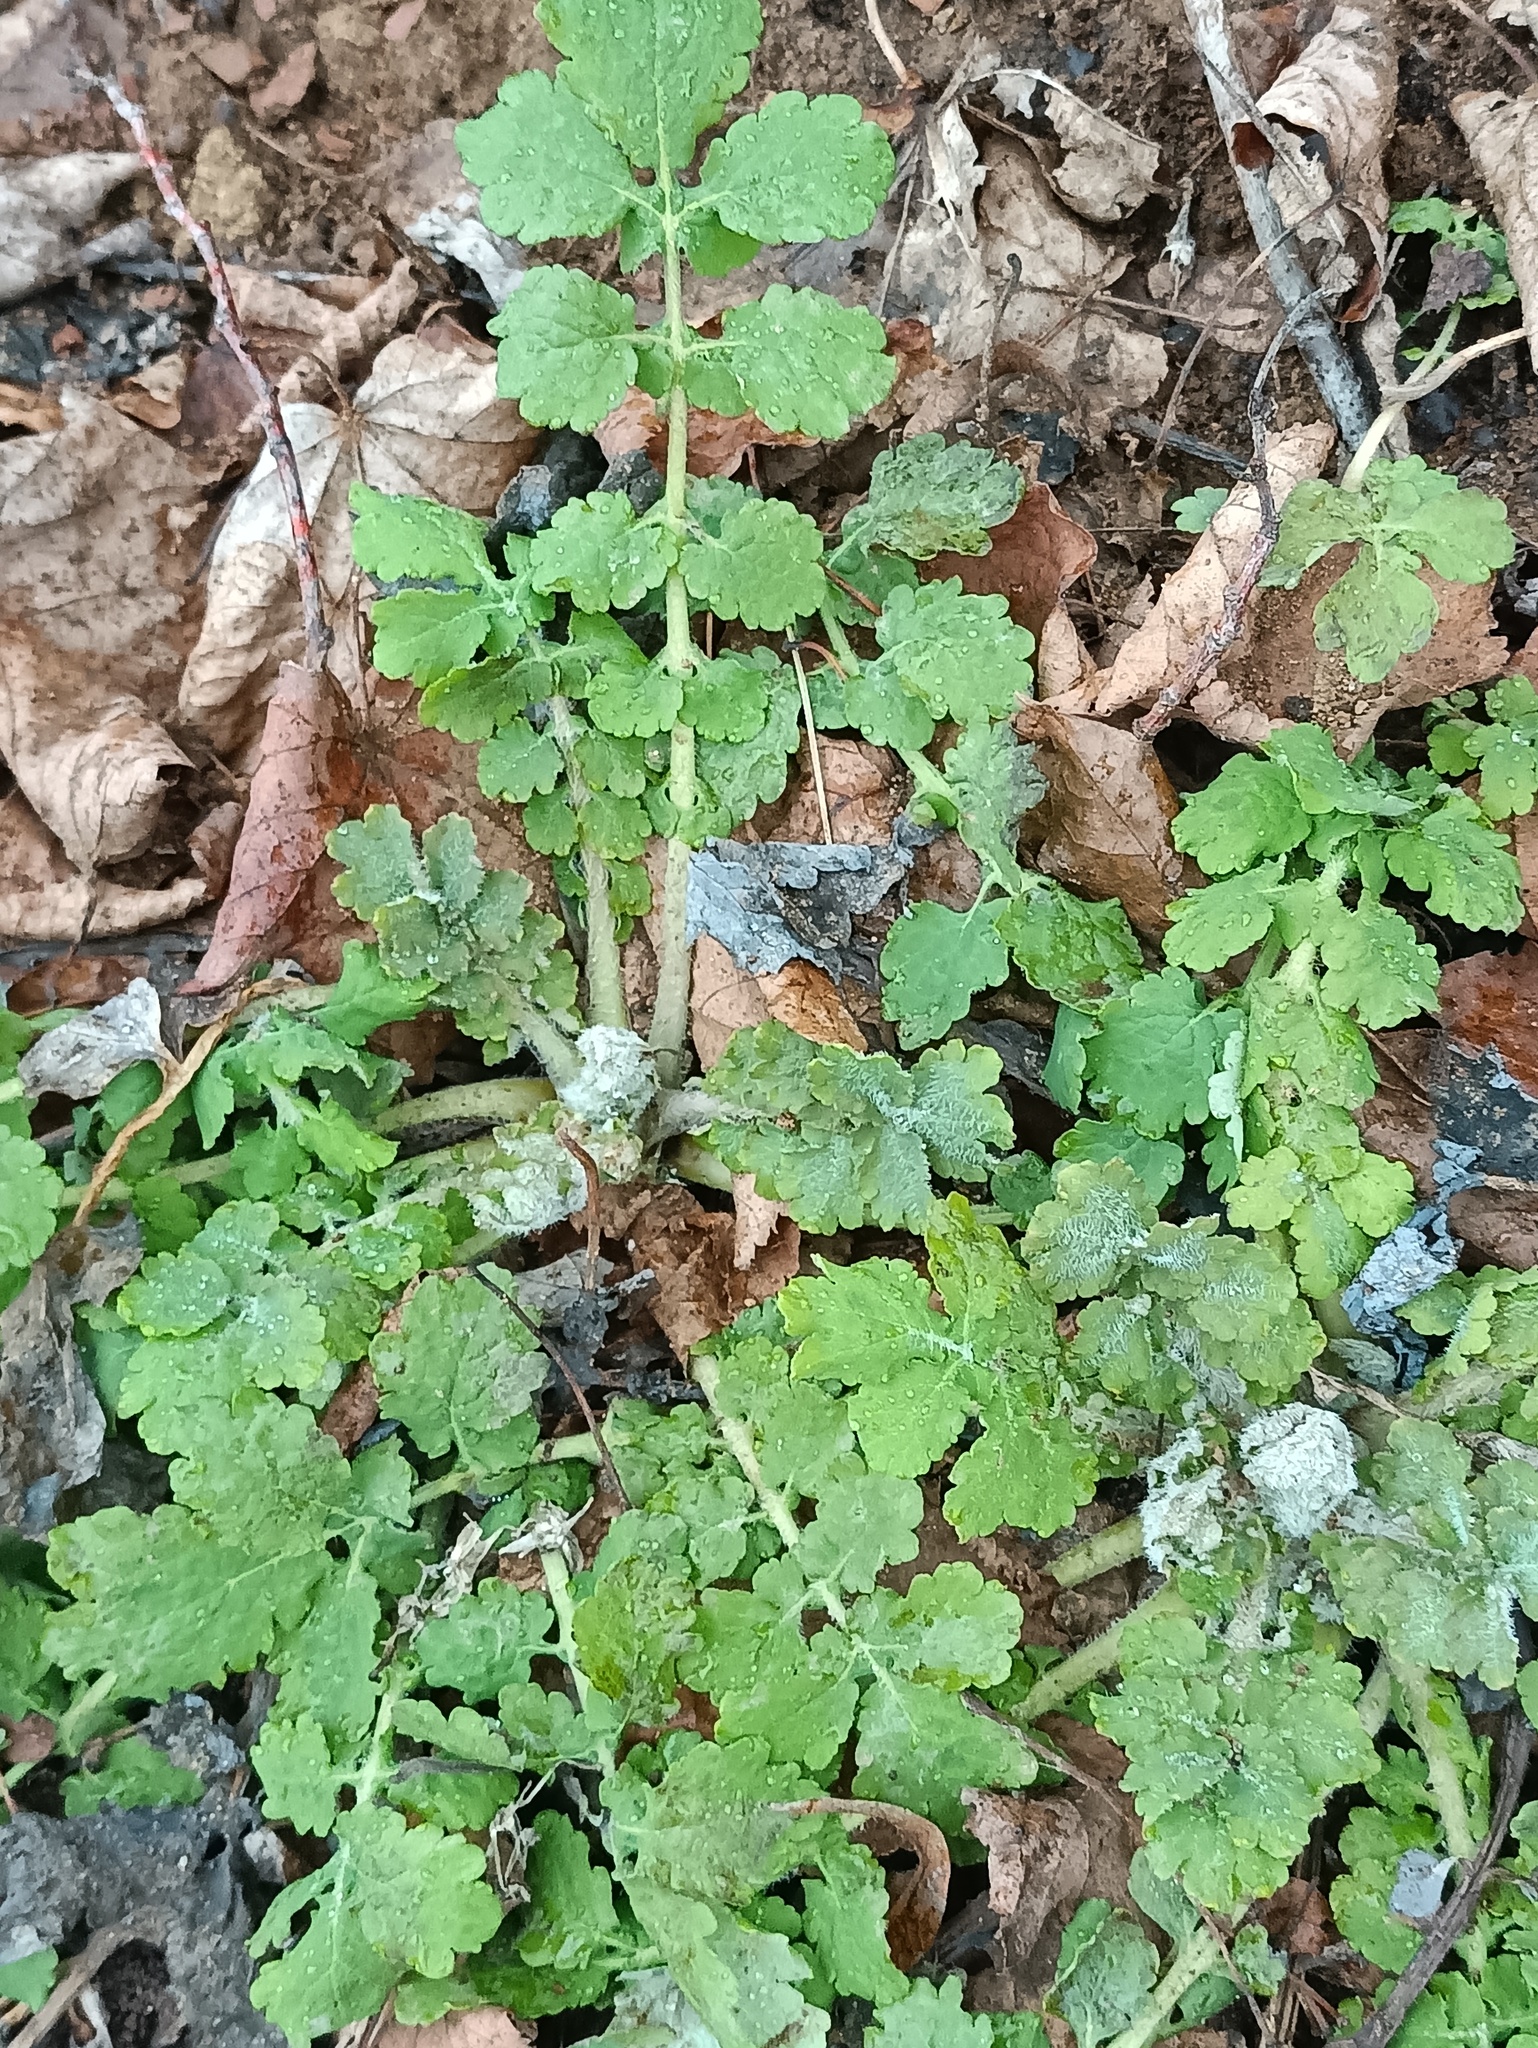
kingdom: Plantae
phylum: Tracheophyta
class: Magnoliopsida
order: Ranunculales
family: Papaveraceae
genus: Chelidonium
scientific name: Chelidonium majus
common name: Greater celandine
